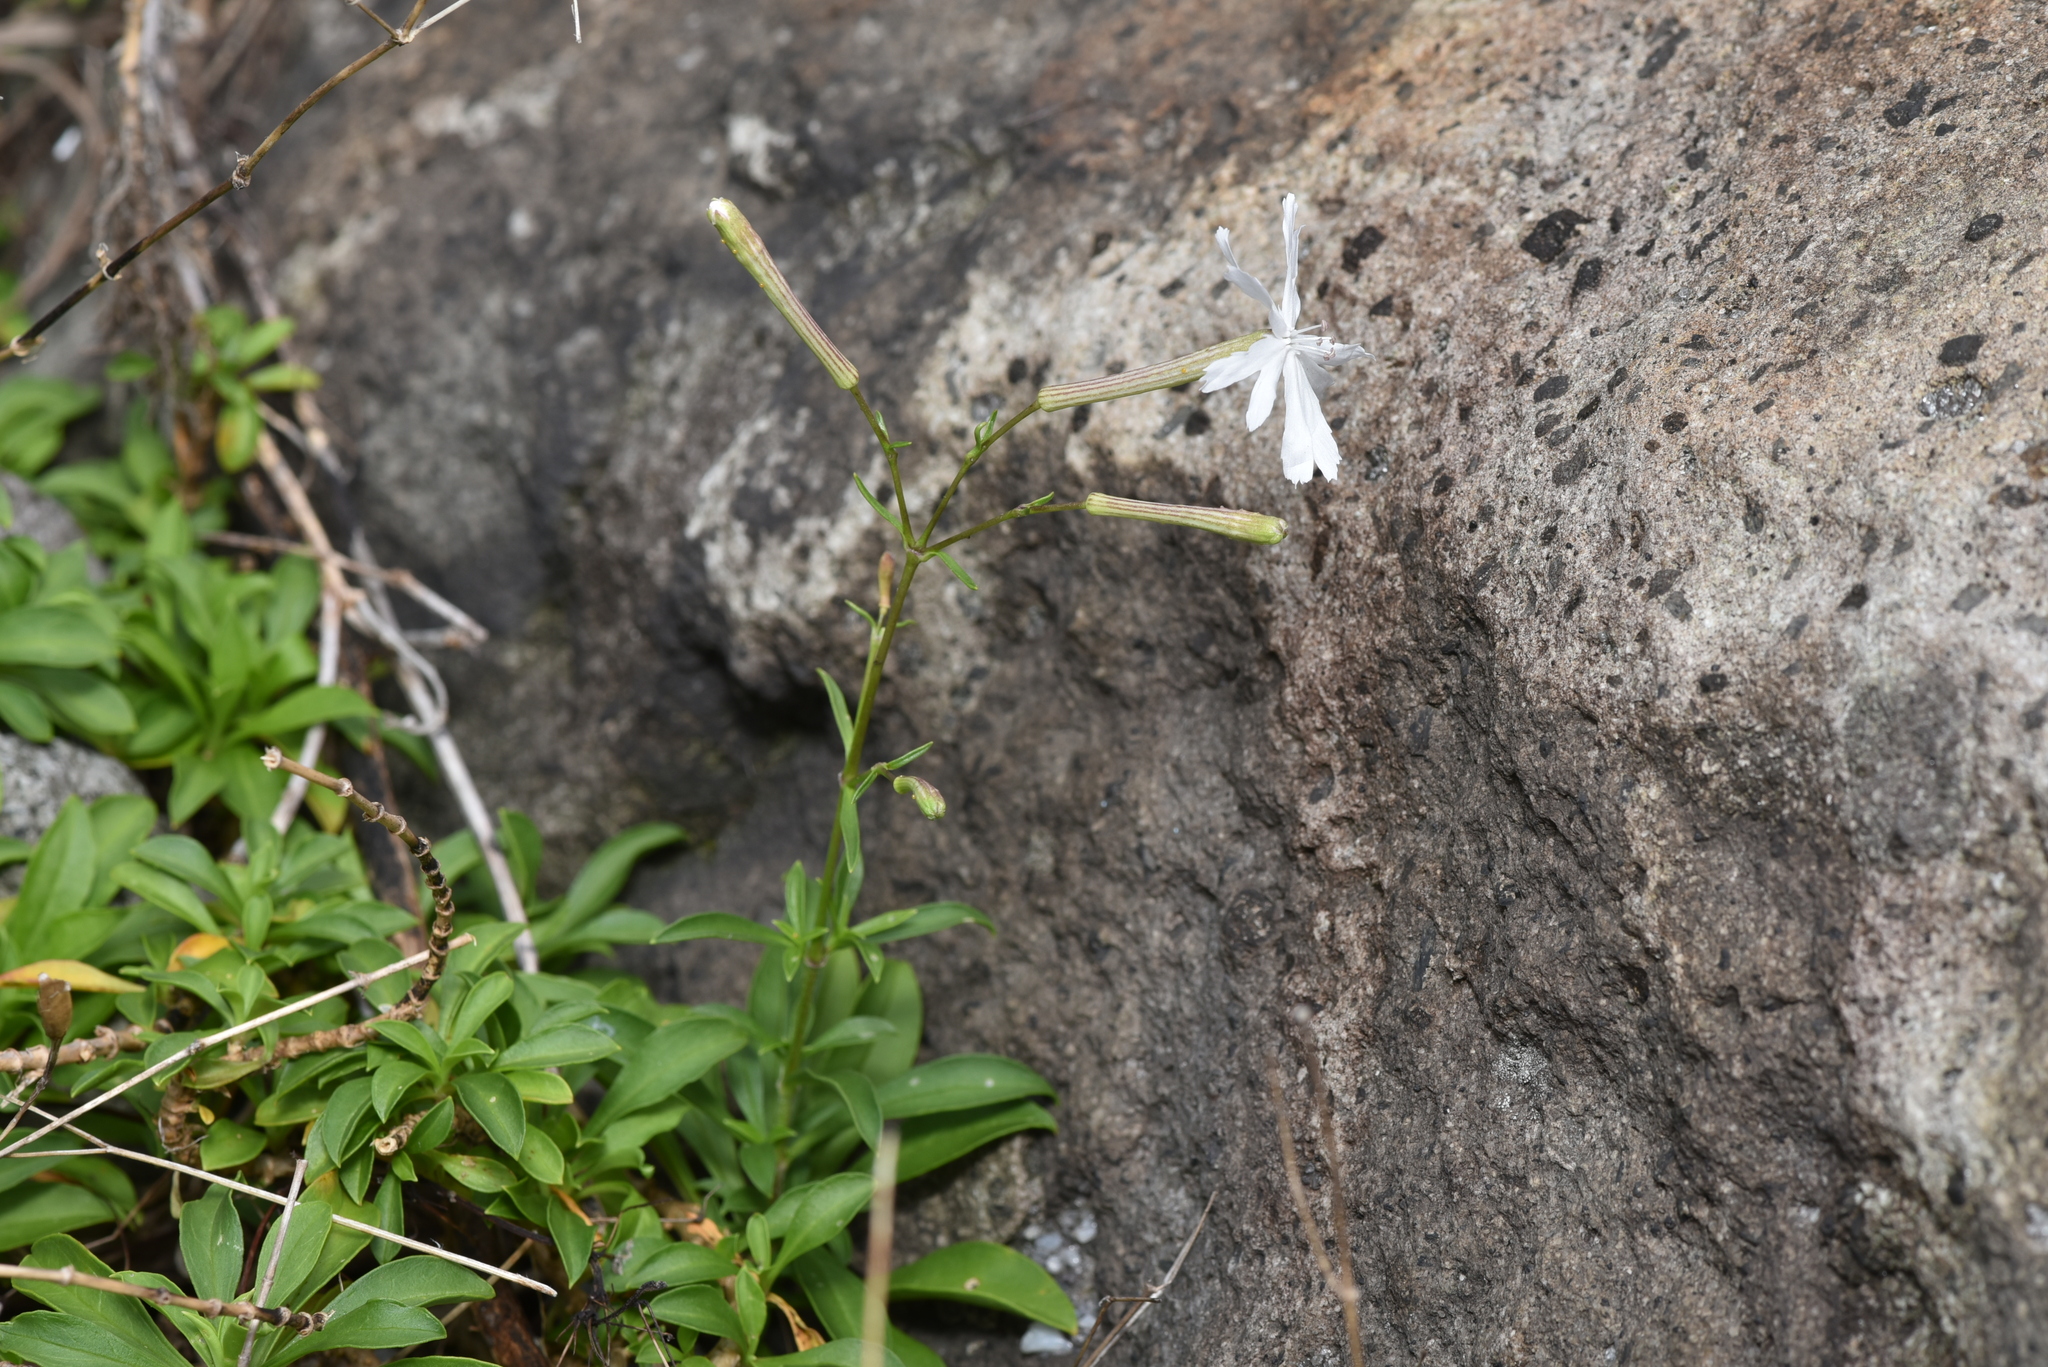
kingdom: Plantae
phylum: Tracheophyta
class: Magnoliopsida
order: Caryophyllales
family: Caryophyllaceae
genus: Silene
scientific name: Silene fissipetala
